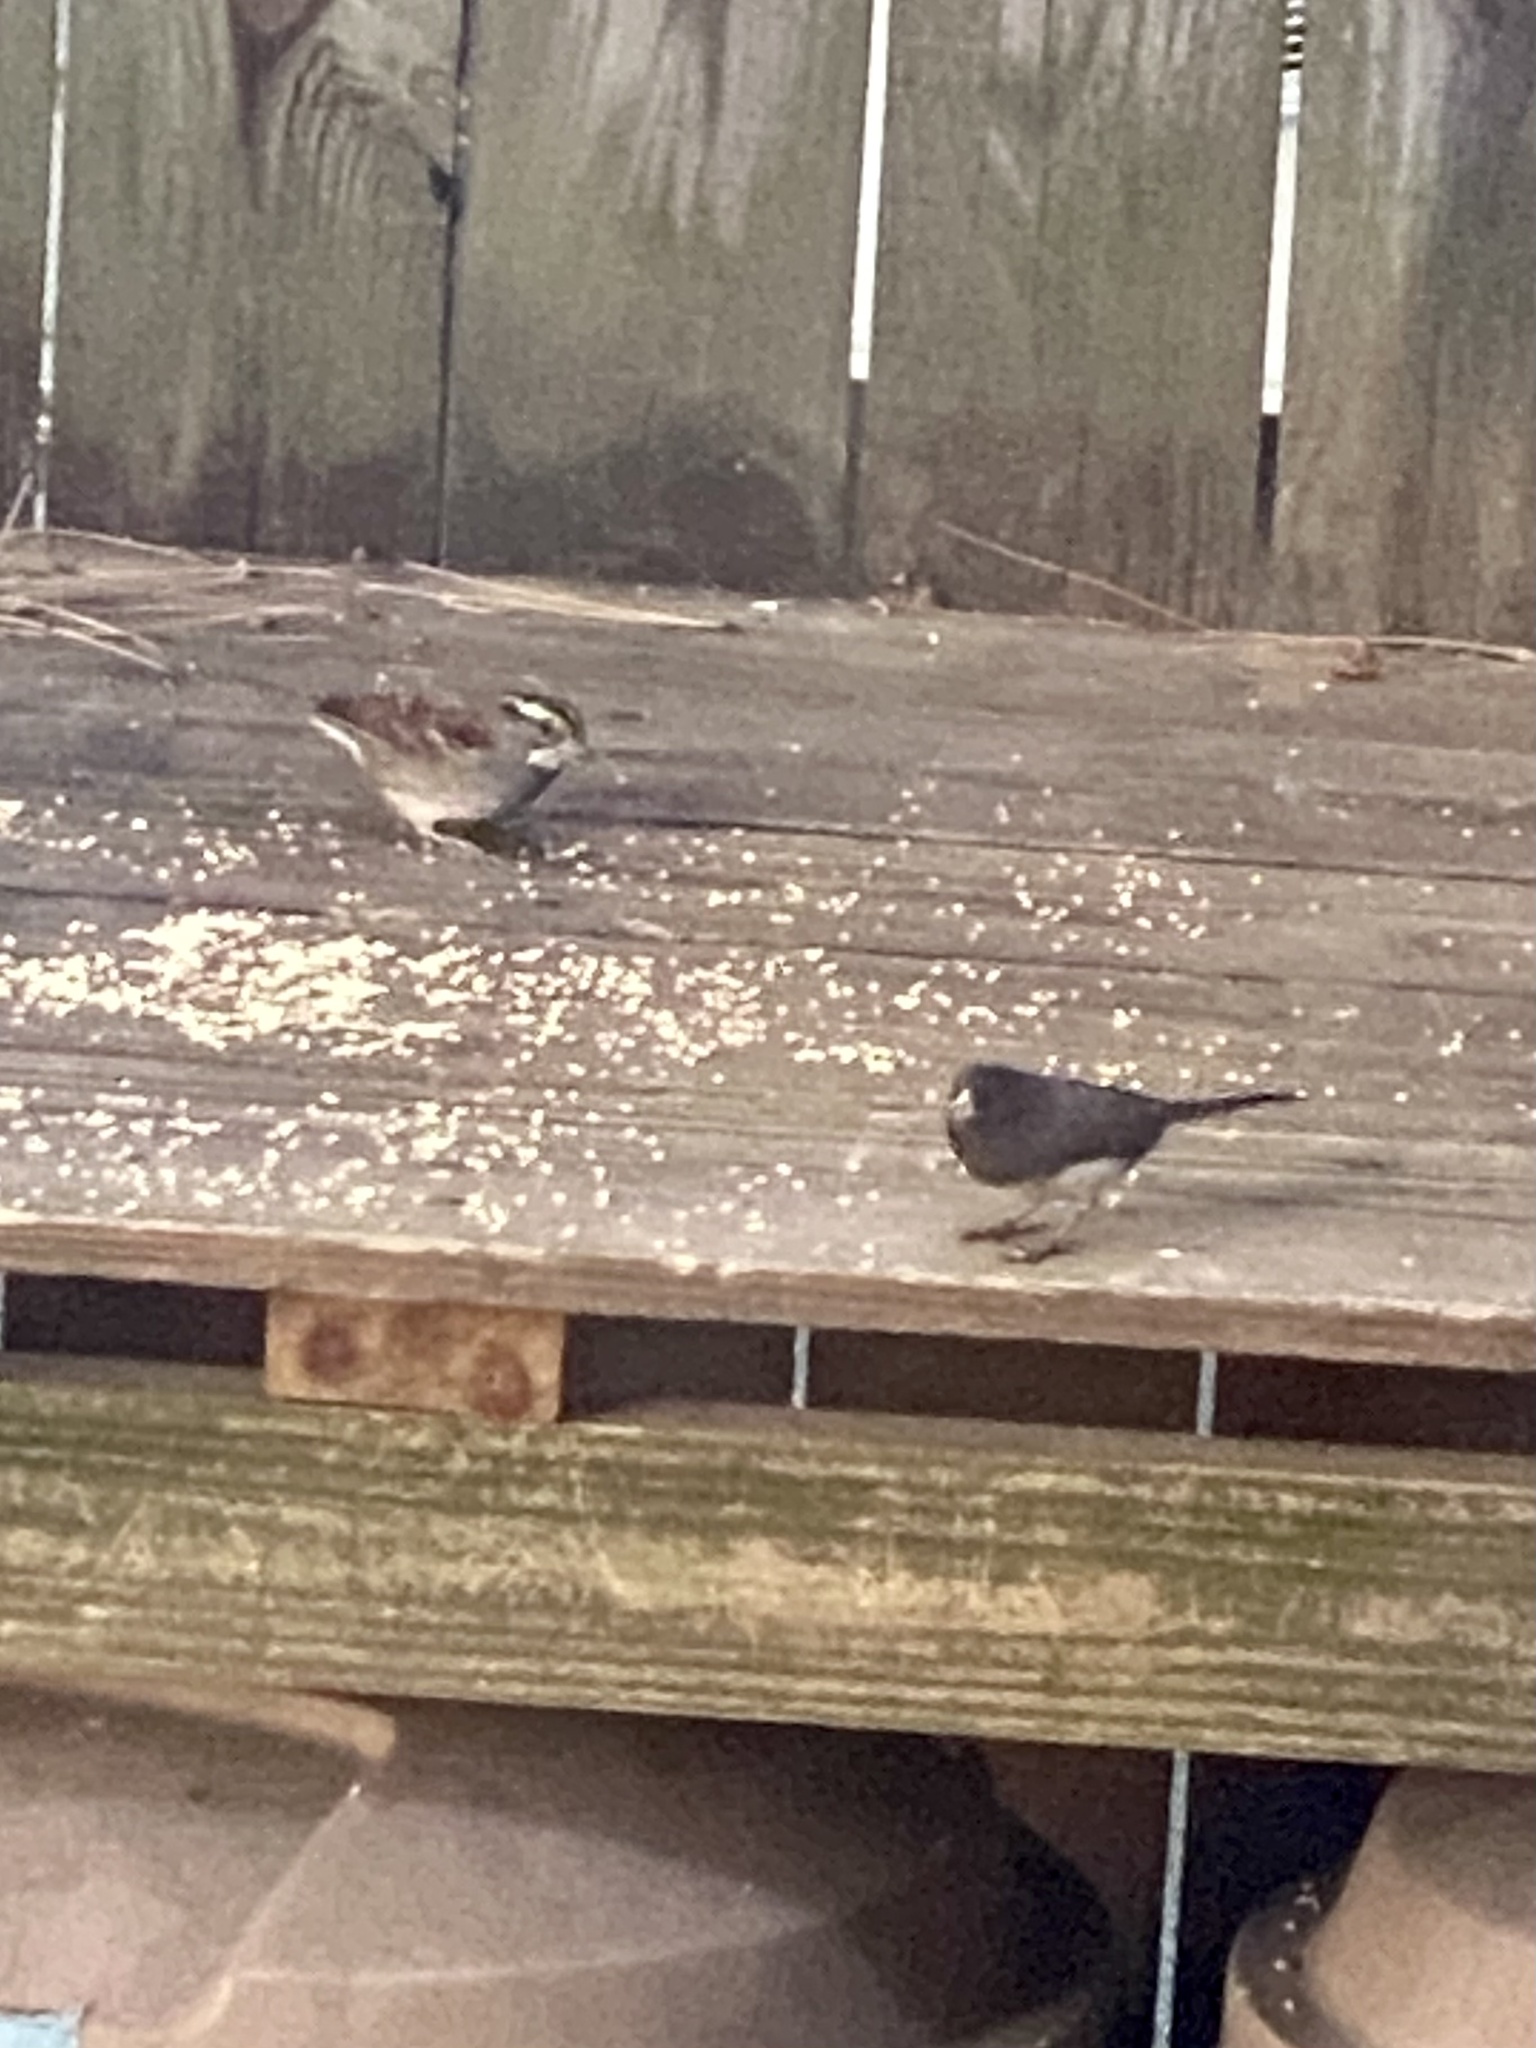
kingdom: Animalia
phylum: Chordata
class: Aves
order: Passeriformes
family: Passerellidae
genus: Zonotrichia
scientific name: Zonotrichia albicollis
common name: White-throated sparrow
